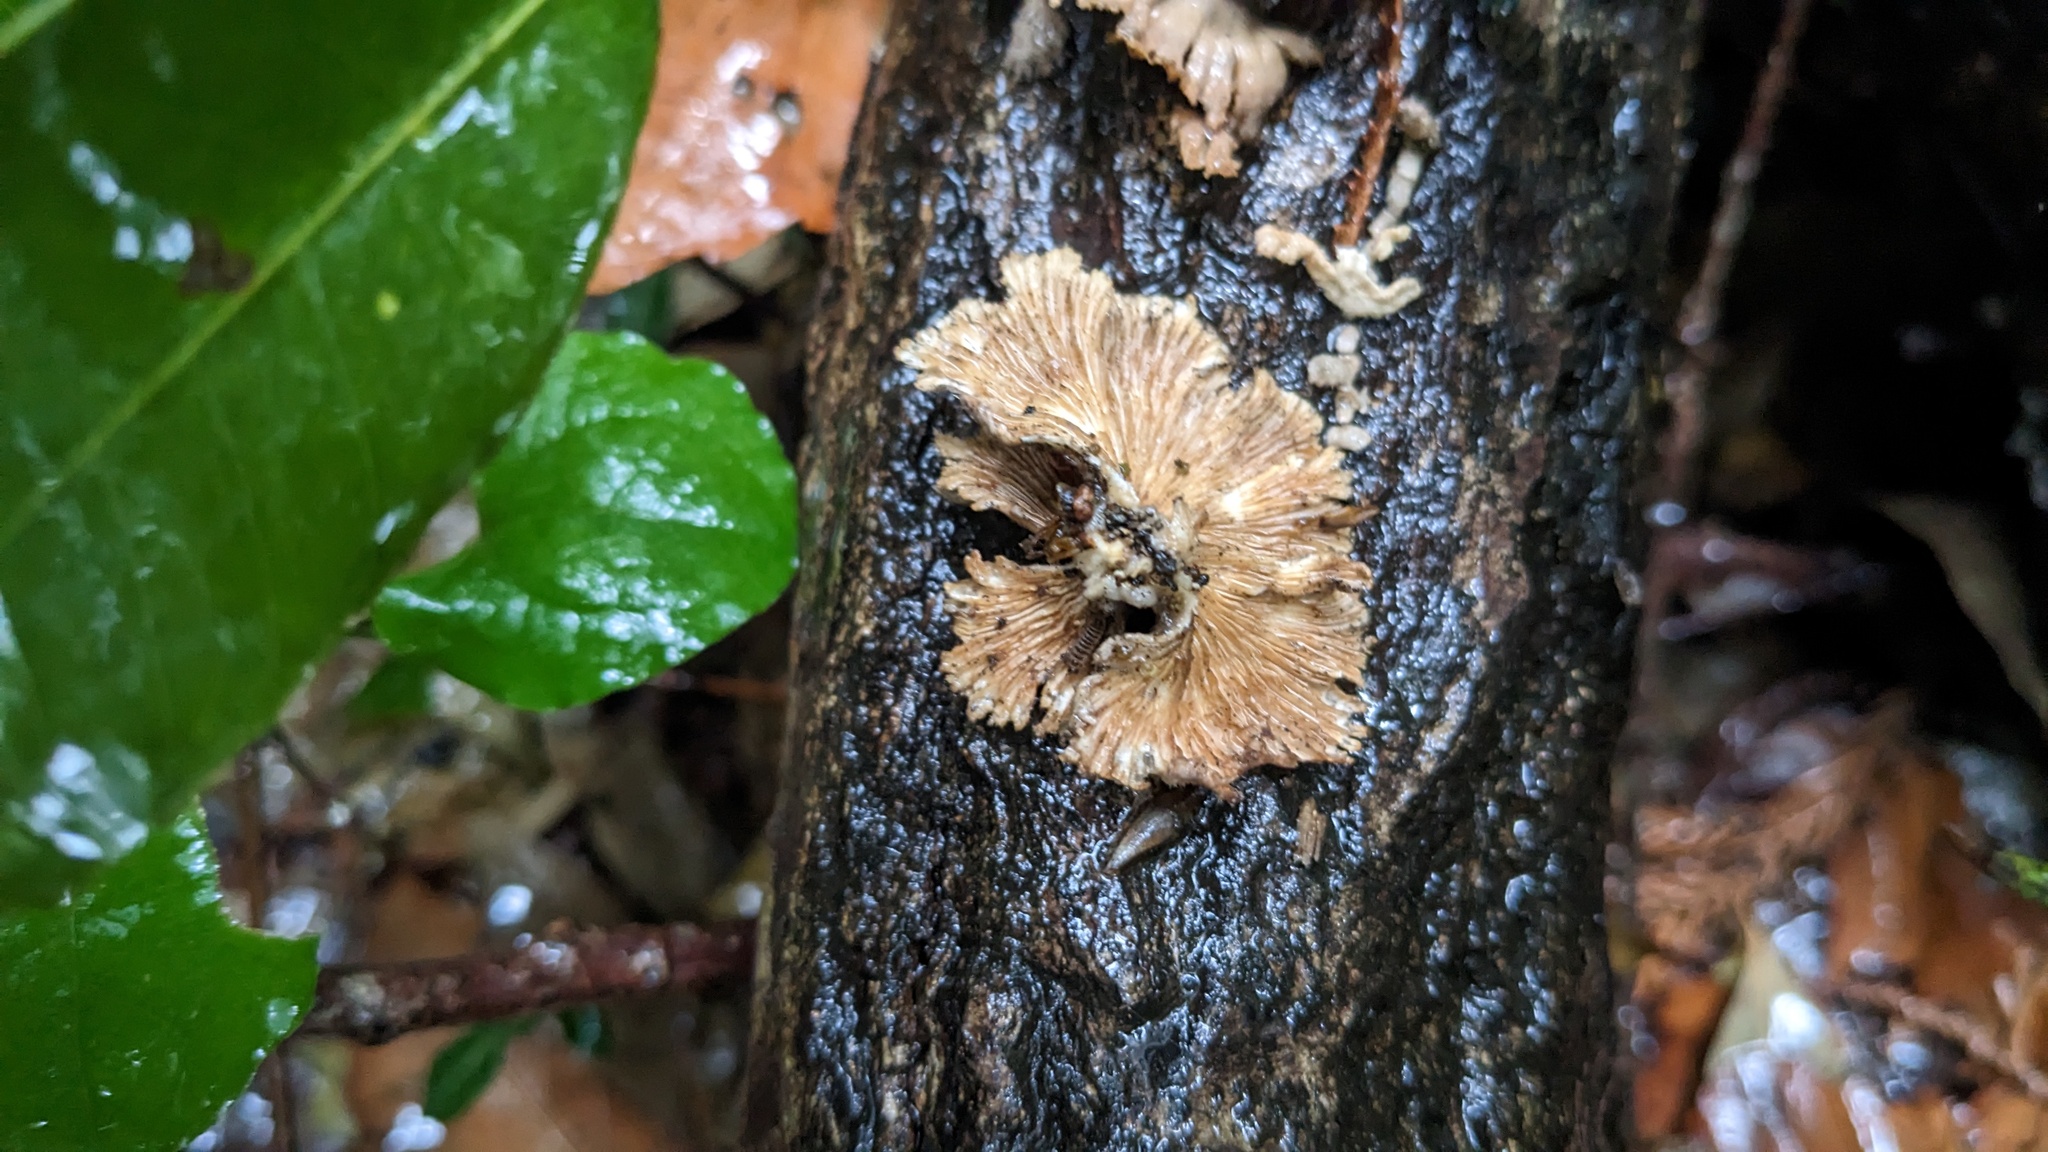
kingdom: Fungi
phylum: Basidiomycota
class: Agaricomycetes
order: Agaricales
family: Schizophyllaceae
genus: Schizophyllum
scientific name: Schizophyllum commune
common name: Common porecrust
